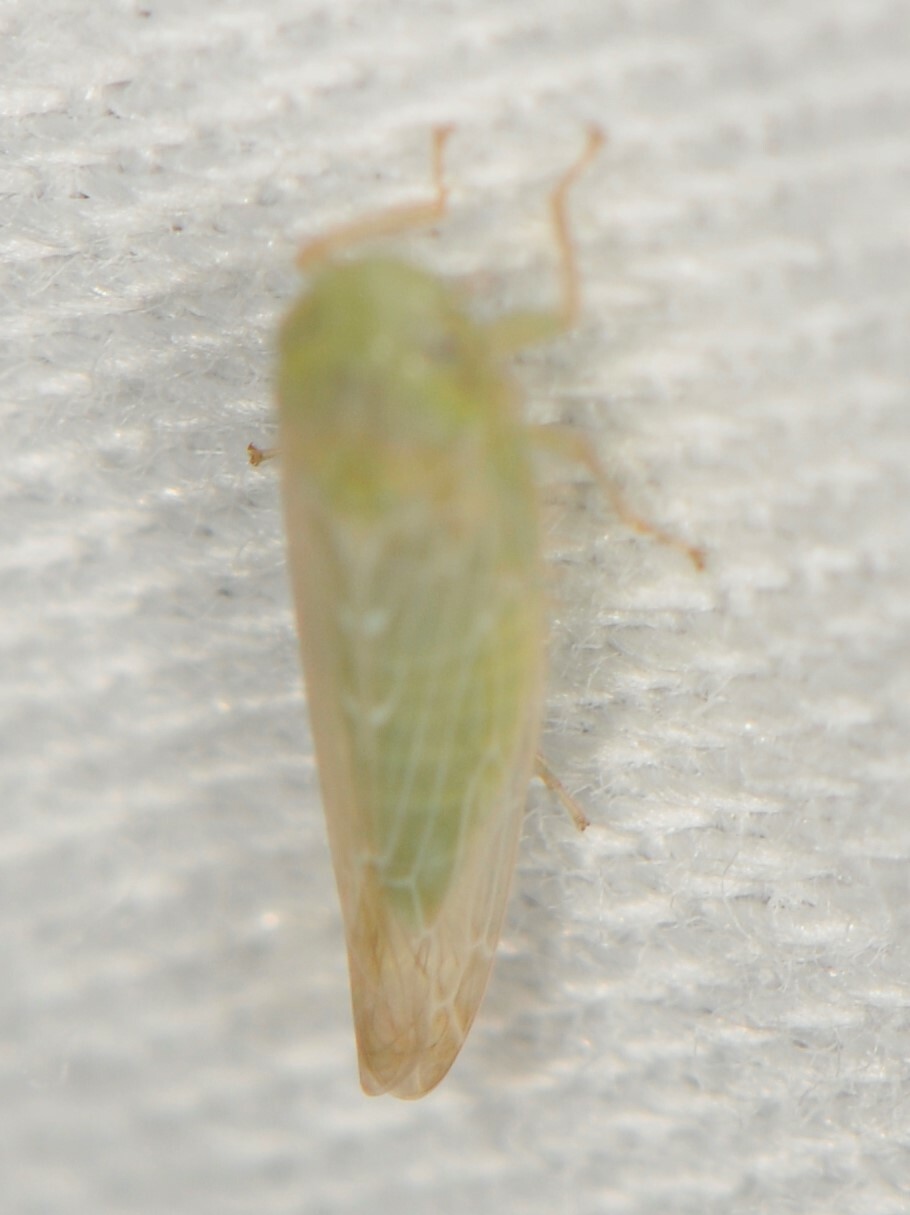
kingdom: Animalia
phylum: Arthropoda
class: Insecta
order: Hemiptera
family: Cicadellidae
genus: Chlorotettix
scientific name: Chlorotettix
